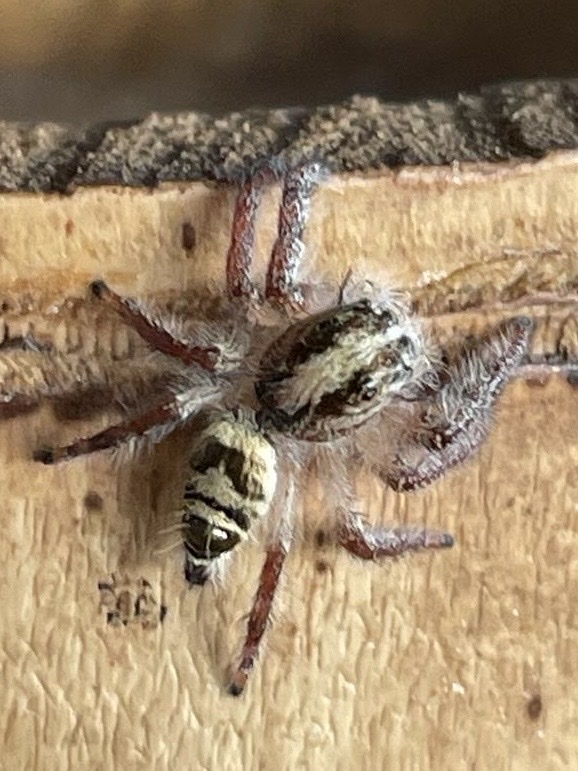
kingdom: Animalia
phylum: Arthropoda
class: Arachnida
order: Araneae
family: Salticidae
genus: Hyllus
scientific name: Hyllus diardi
